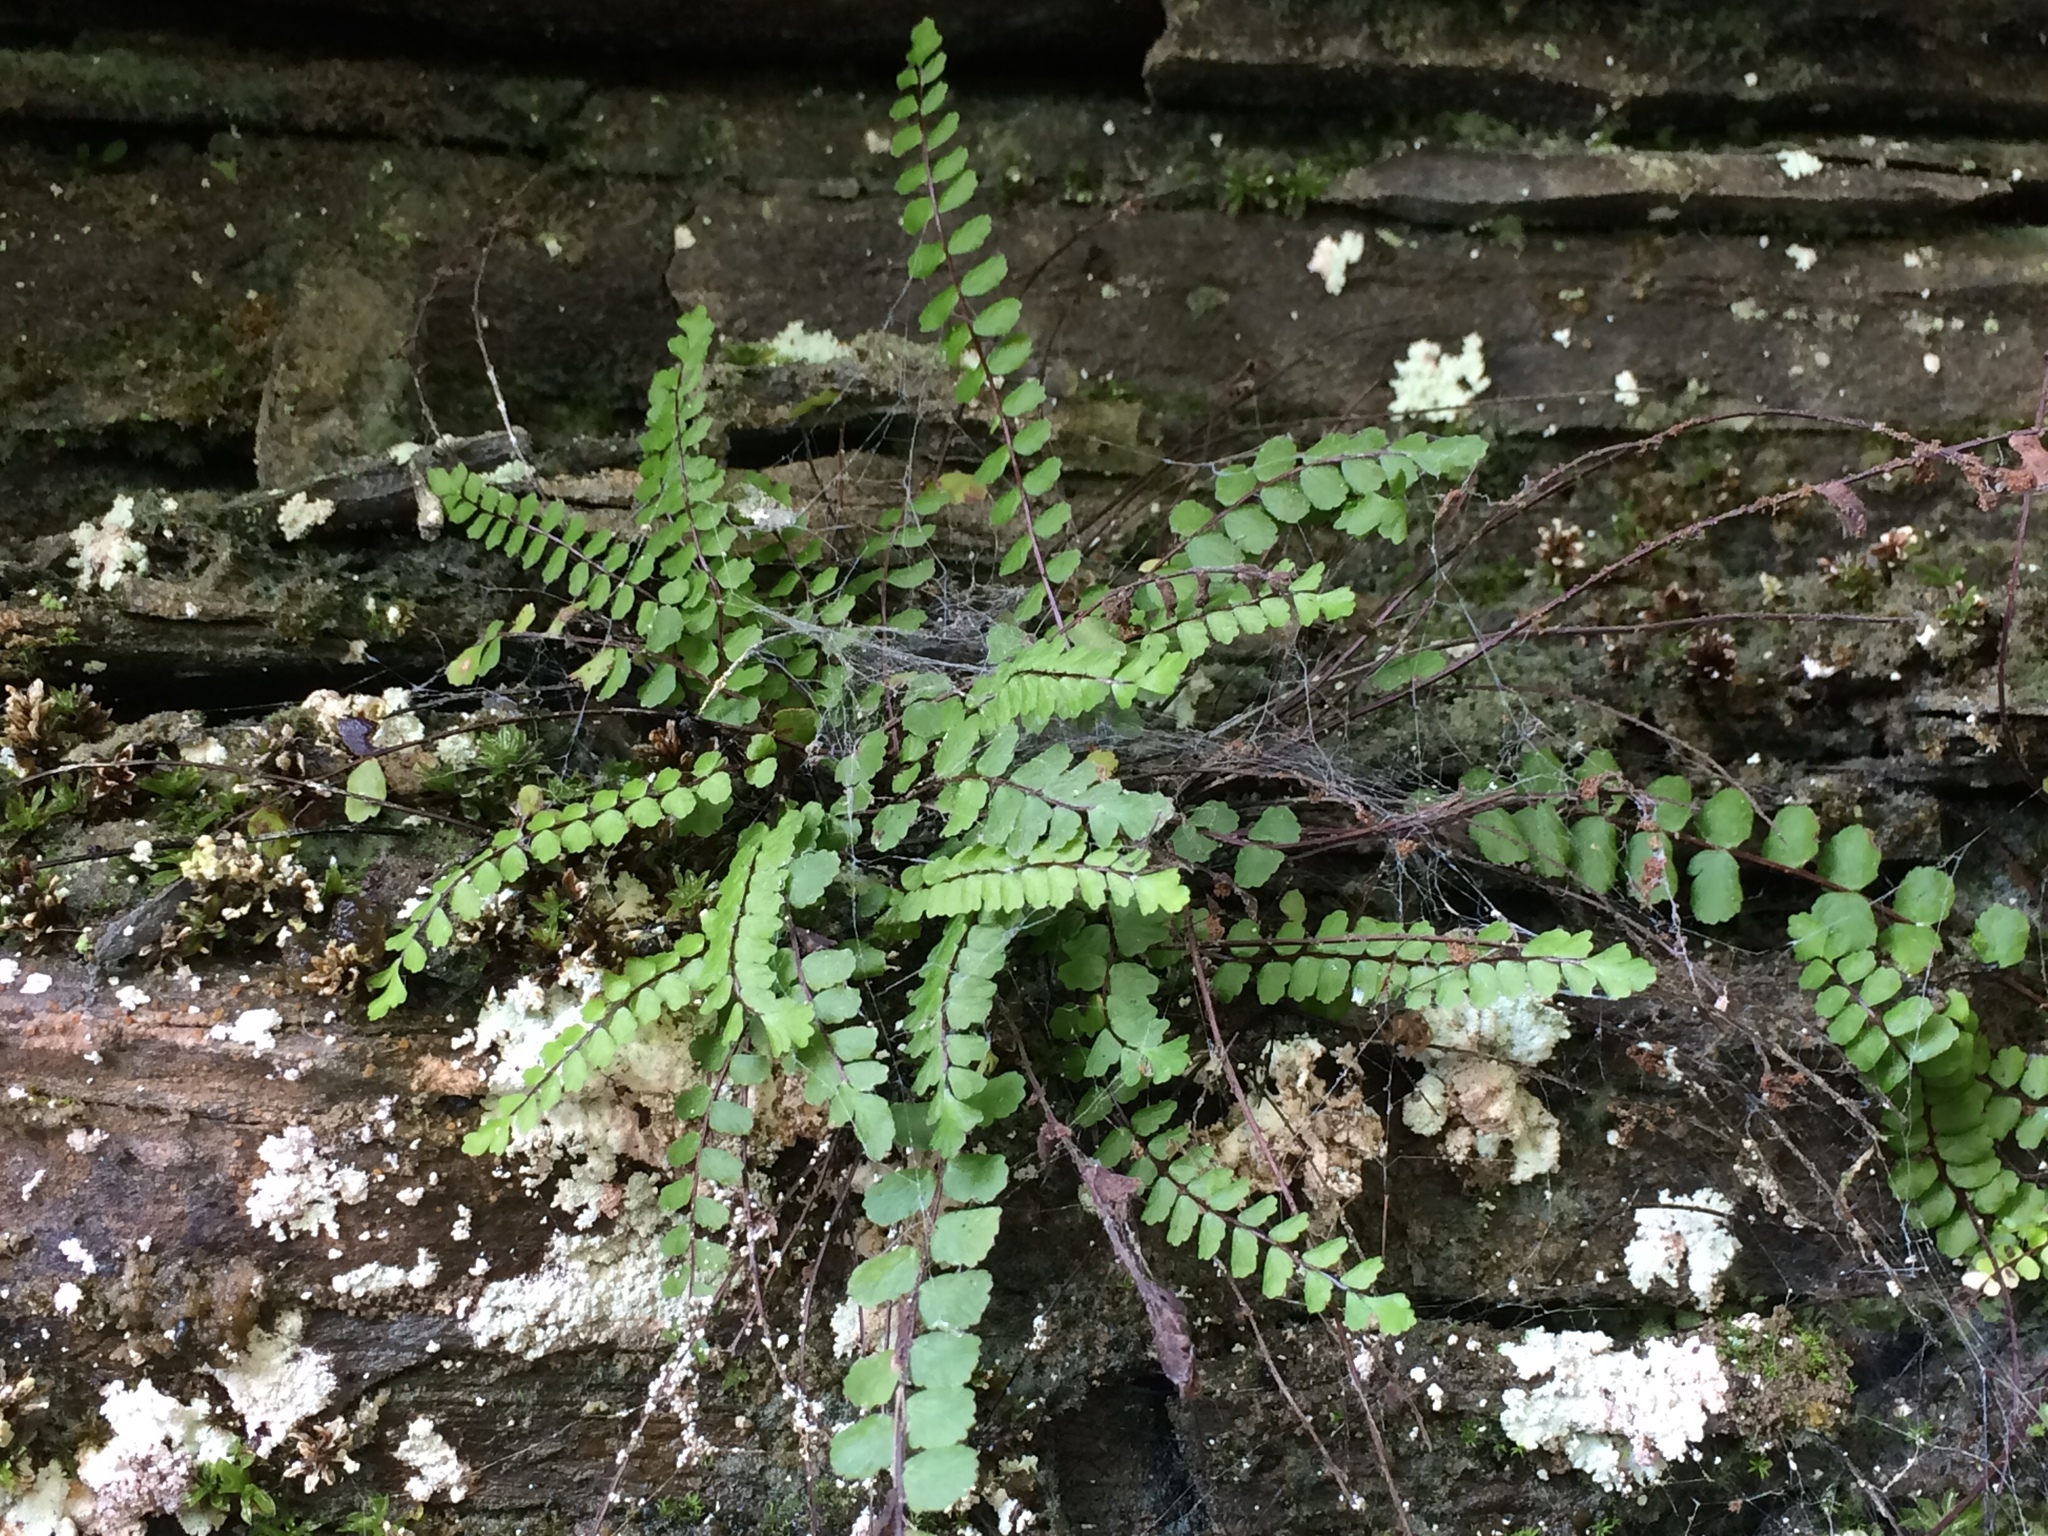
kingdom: Plantae
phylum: Tracheophyta
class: Polypodiopsida
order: Polypodiales
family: Aspleniaceae
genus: Asplenium
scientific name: Asplenium trichomanes
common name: Maidenhair spleenwort
